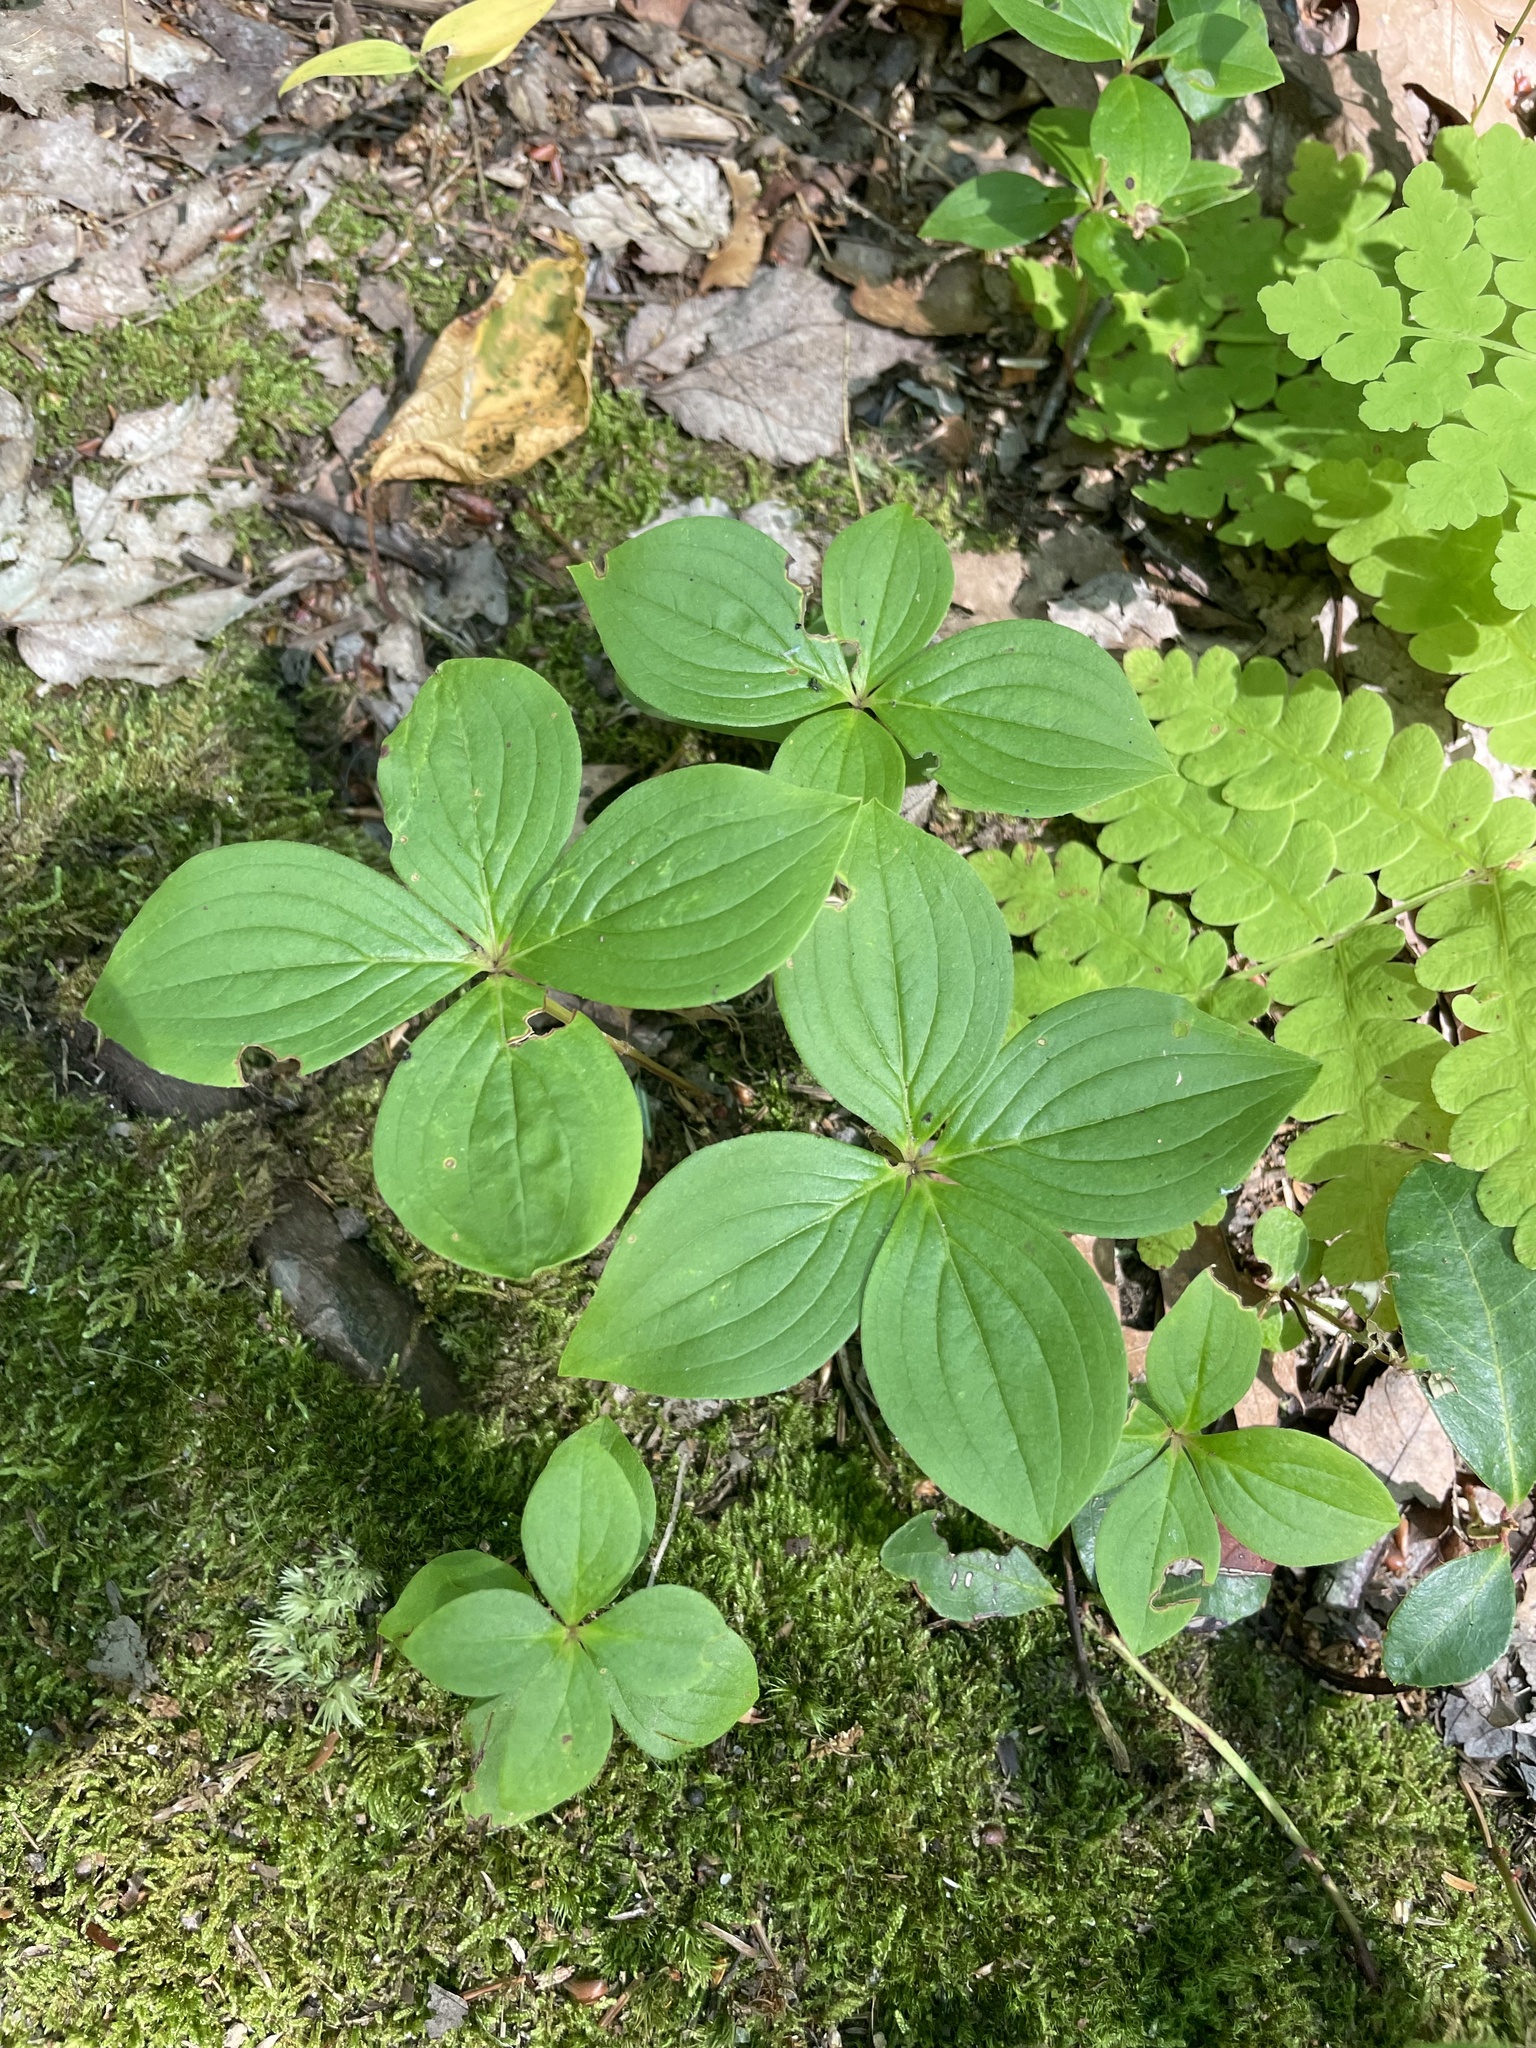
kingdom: Plantae
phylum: Tracheophyta
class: Magnoliopsida
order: Cornales
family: Cornaceae
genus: Cornus
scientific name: Cornus canadensis
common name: Creeping dogwood
